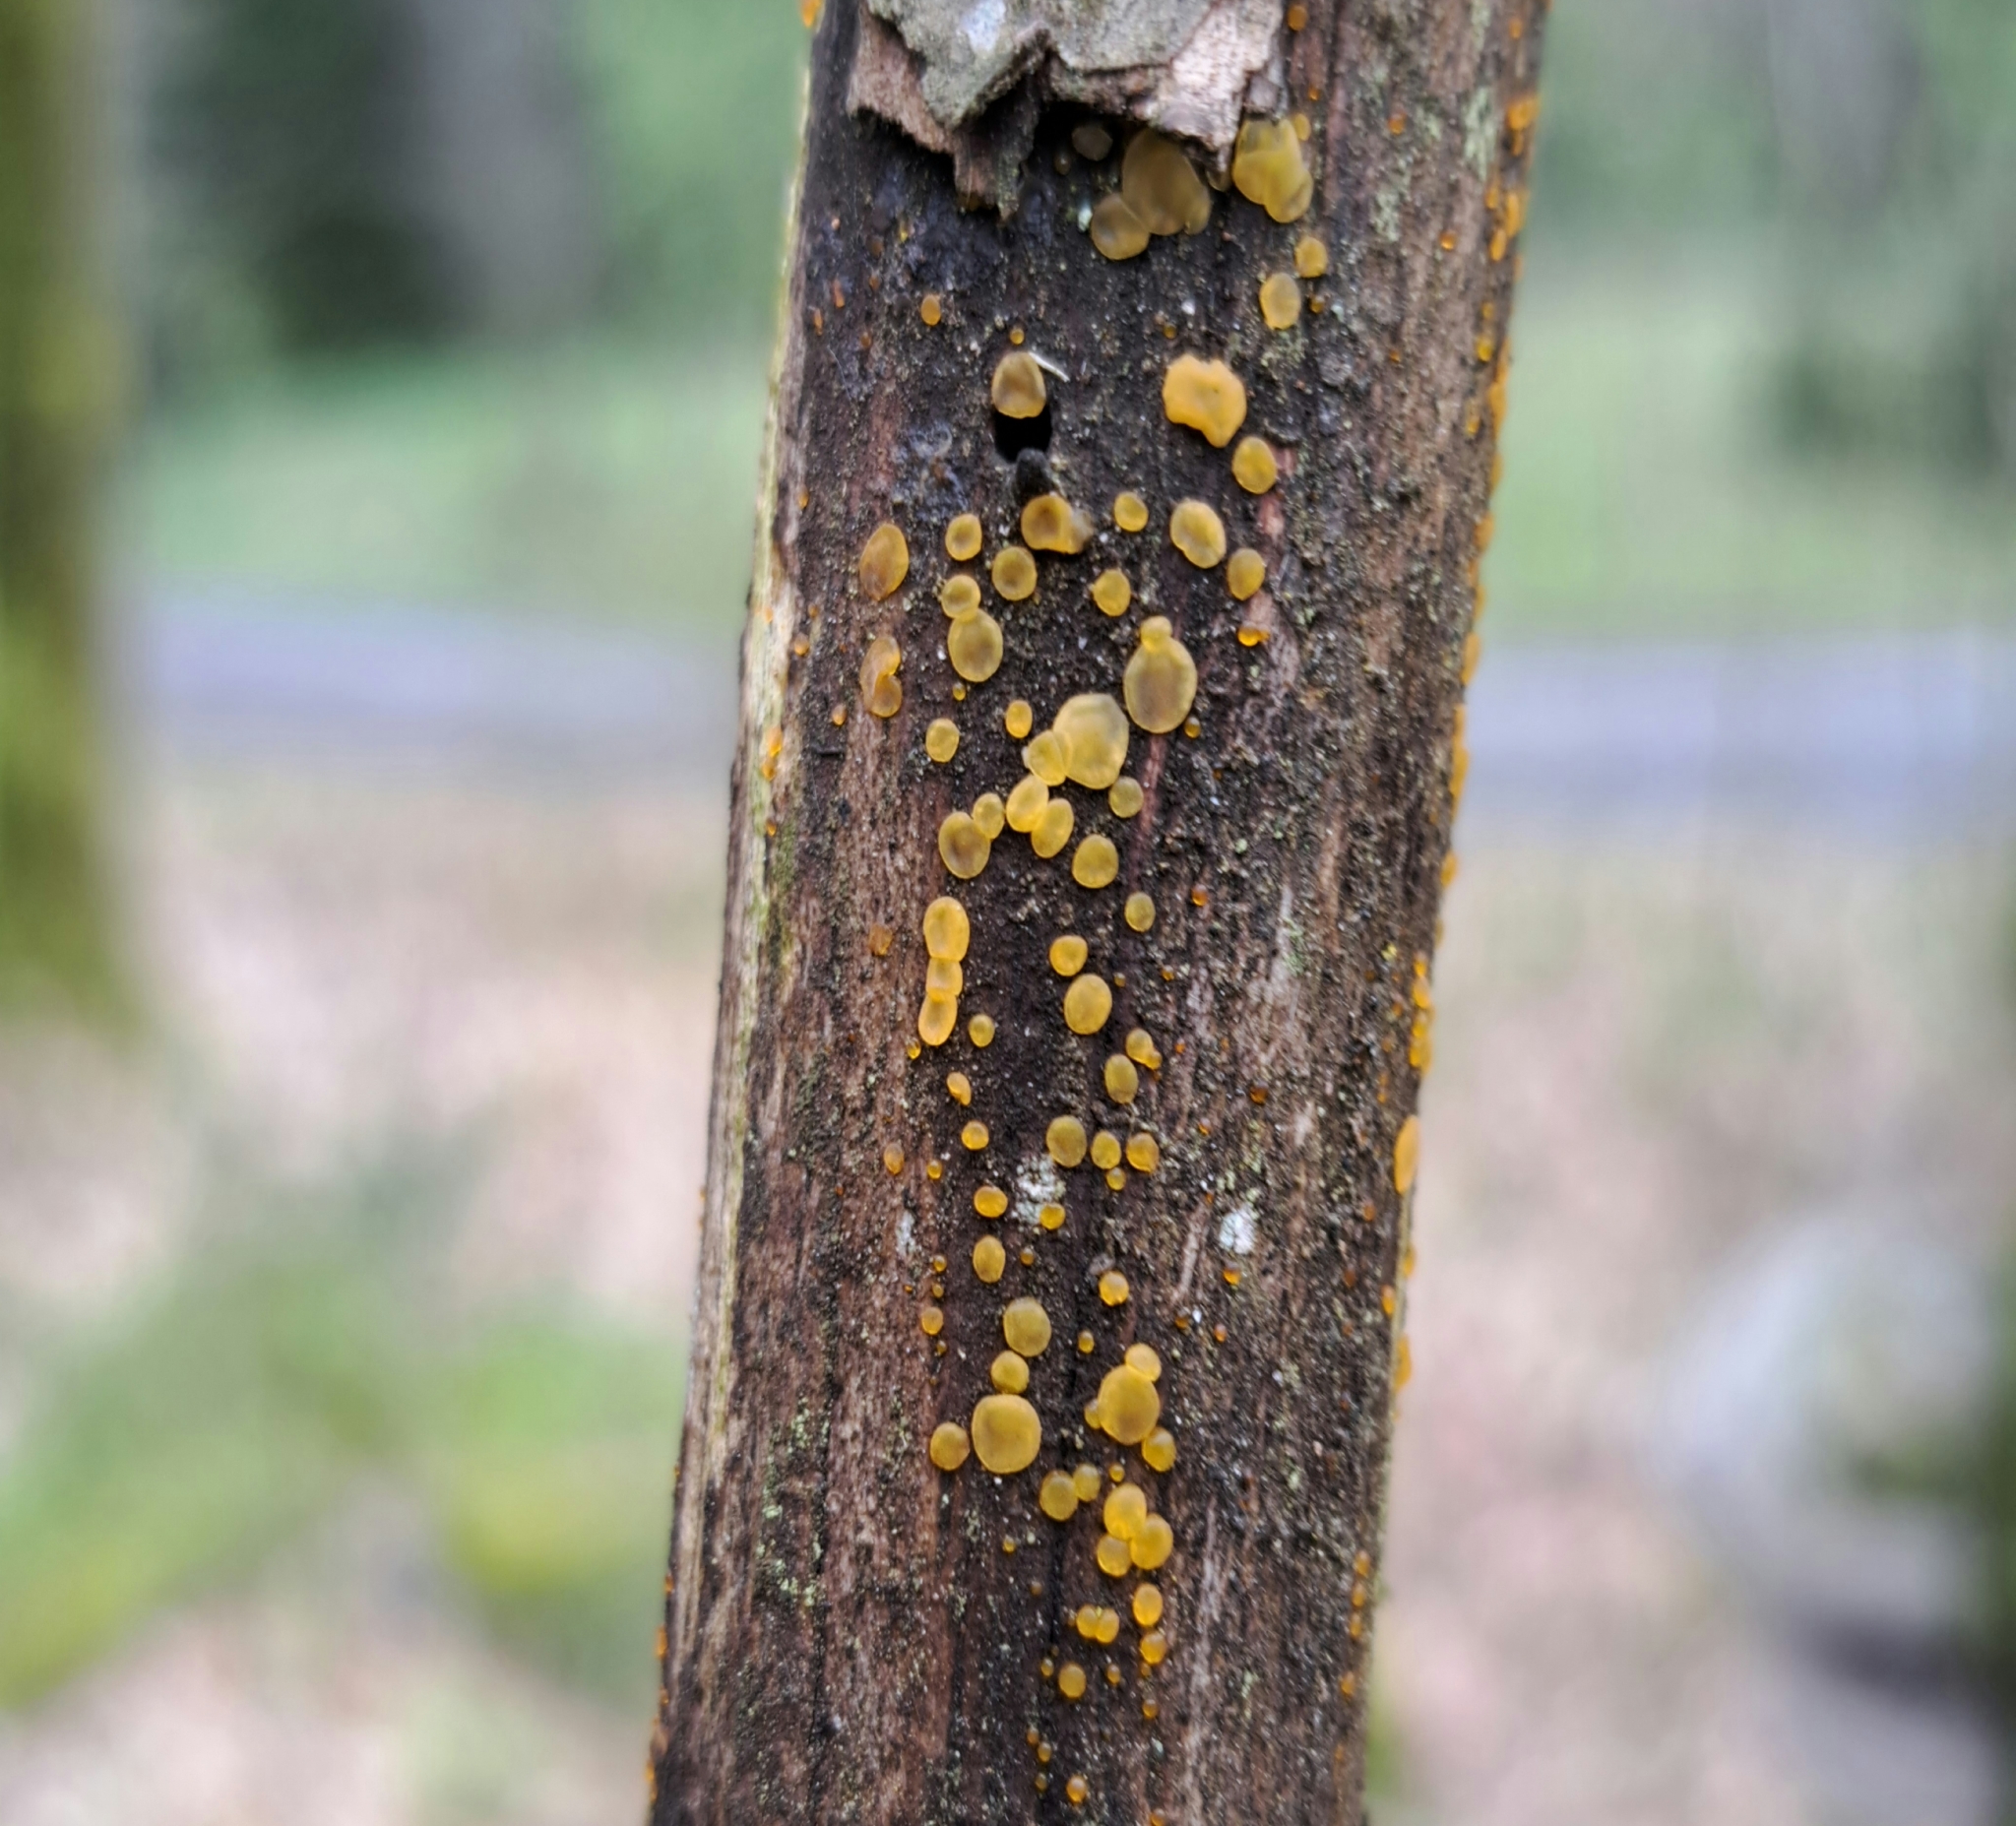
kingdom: Fungi
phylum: Basidiomycota
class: Dacrymycetes
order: Dacrymycetales
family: Dacrymycetaceae
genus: Dacrymyces
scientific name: Dacrymyces stillatus
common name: Common jelly spot
